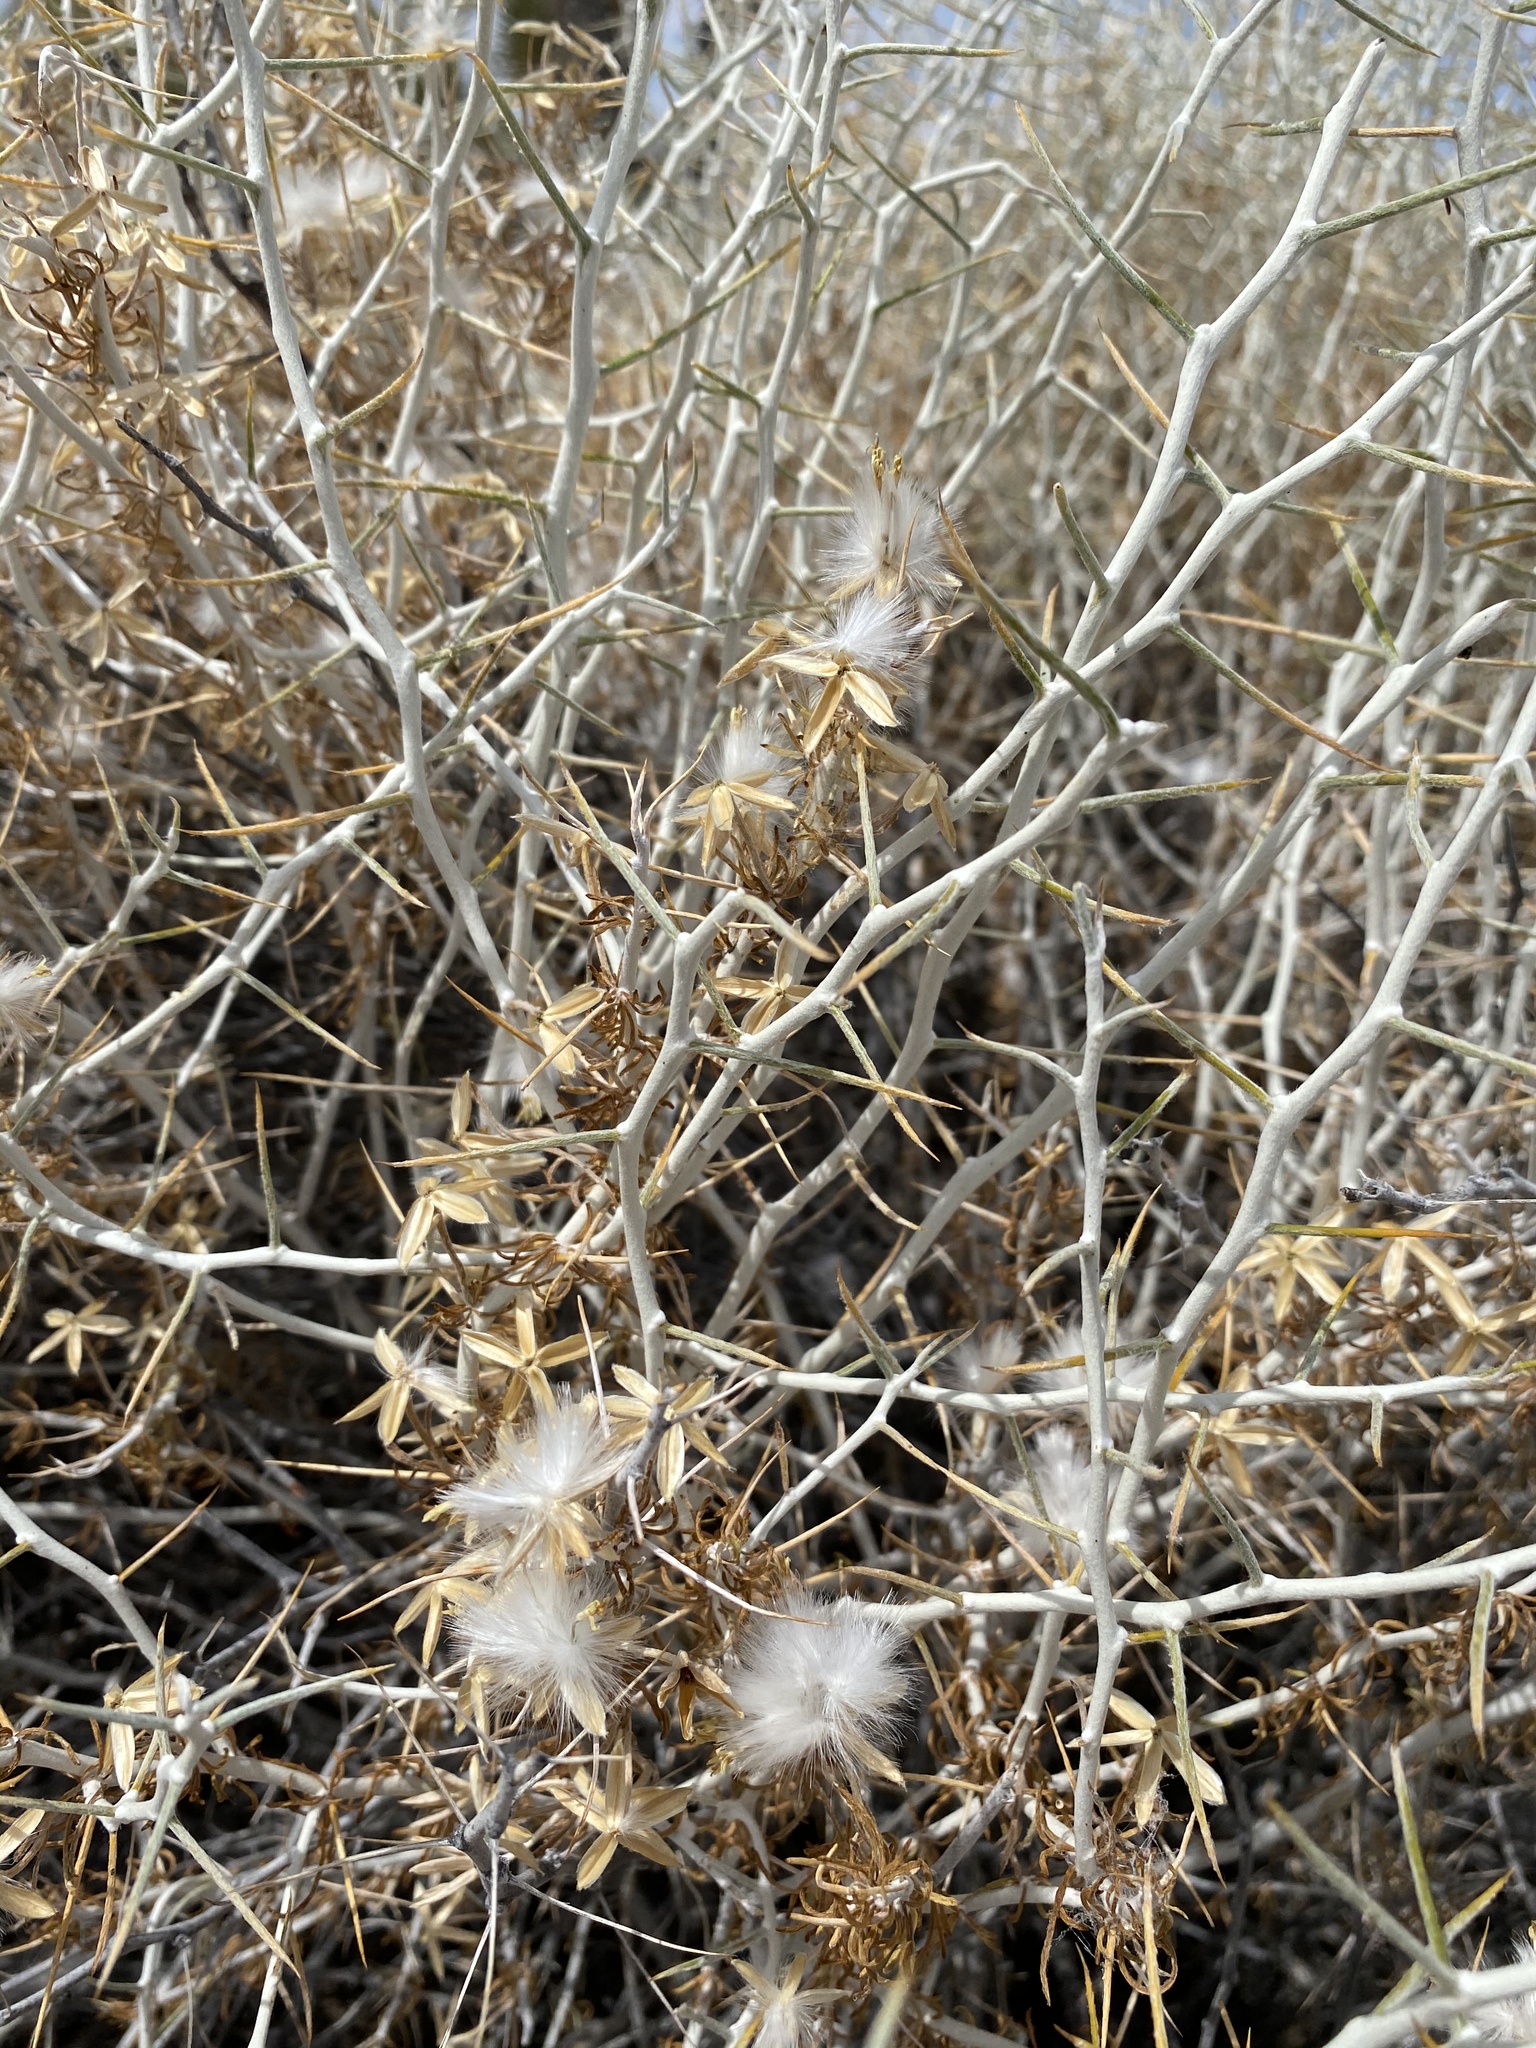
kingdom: Plantae
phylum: Tracheophyta
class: Magnoliopsida
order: Asterales
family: Asteraceae
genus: Tetradymia
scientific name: Tetradymia axillaris
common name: Long-spine horsebrush
